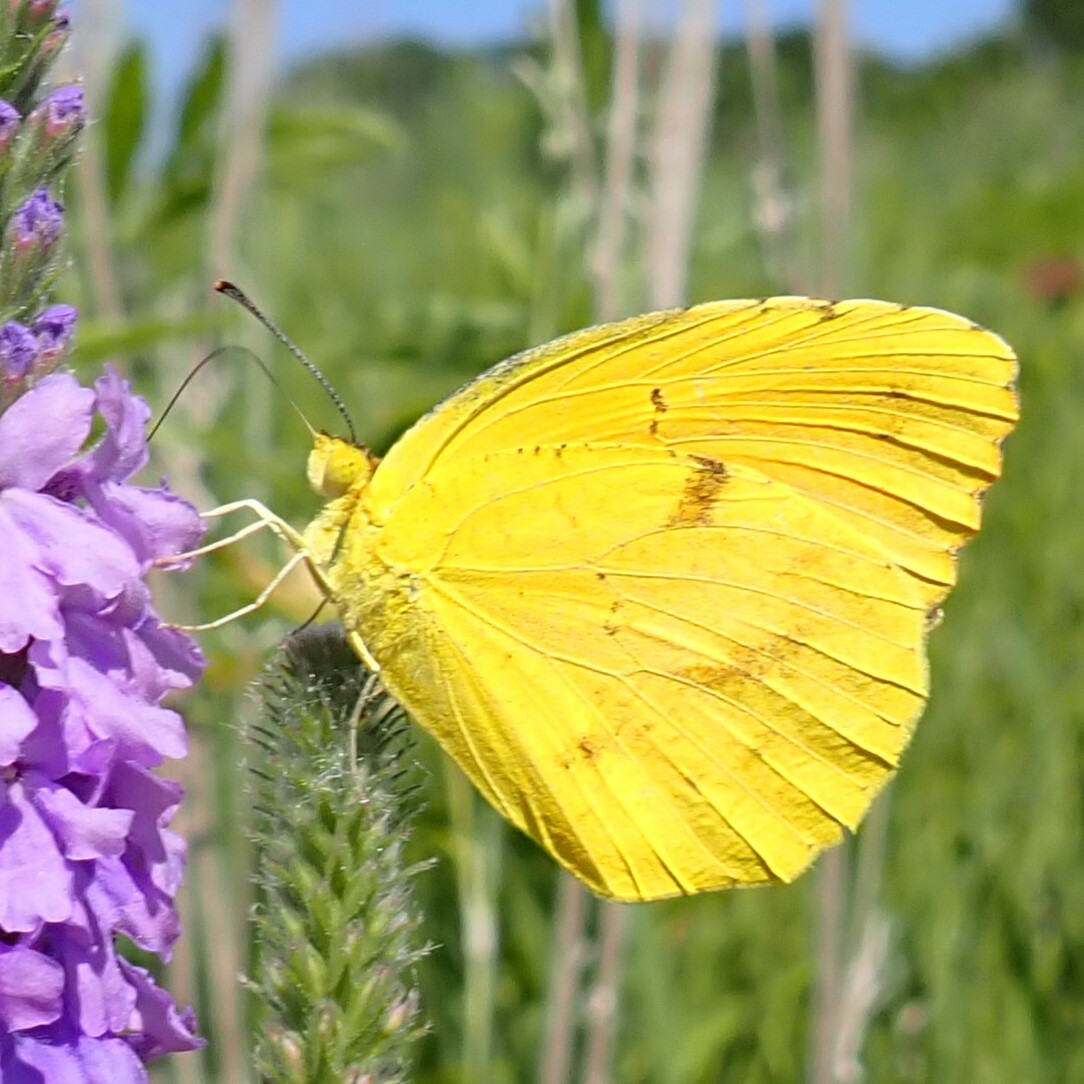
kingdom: Animalia
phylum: Arthropoda
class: Insecta
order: Lepidoptera
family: Pieridae
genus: Abaeis
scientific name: Abaeis nicippe
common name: Sleepy orange
